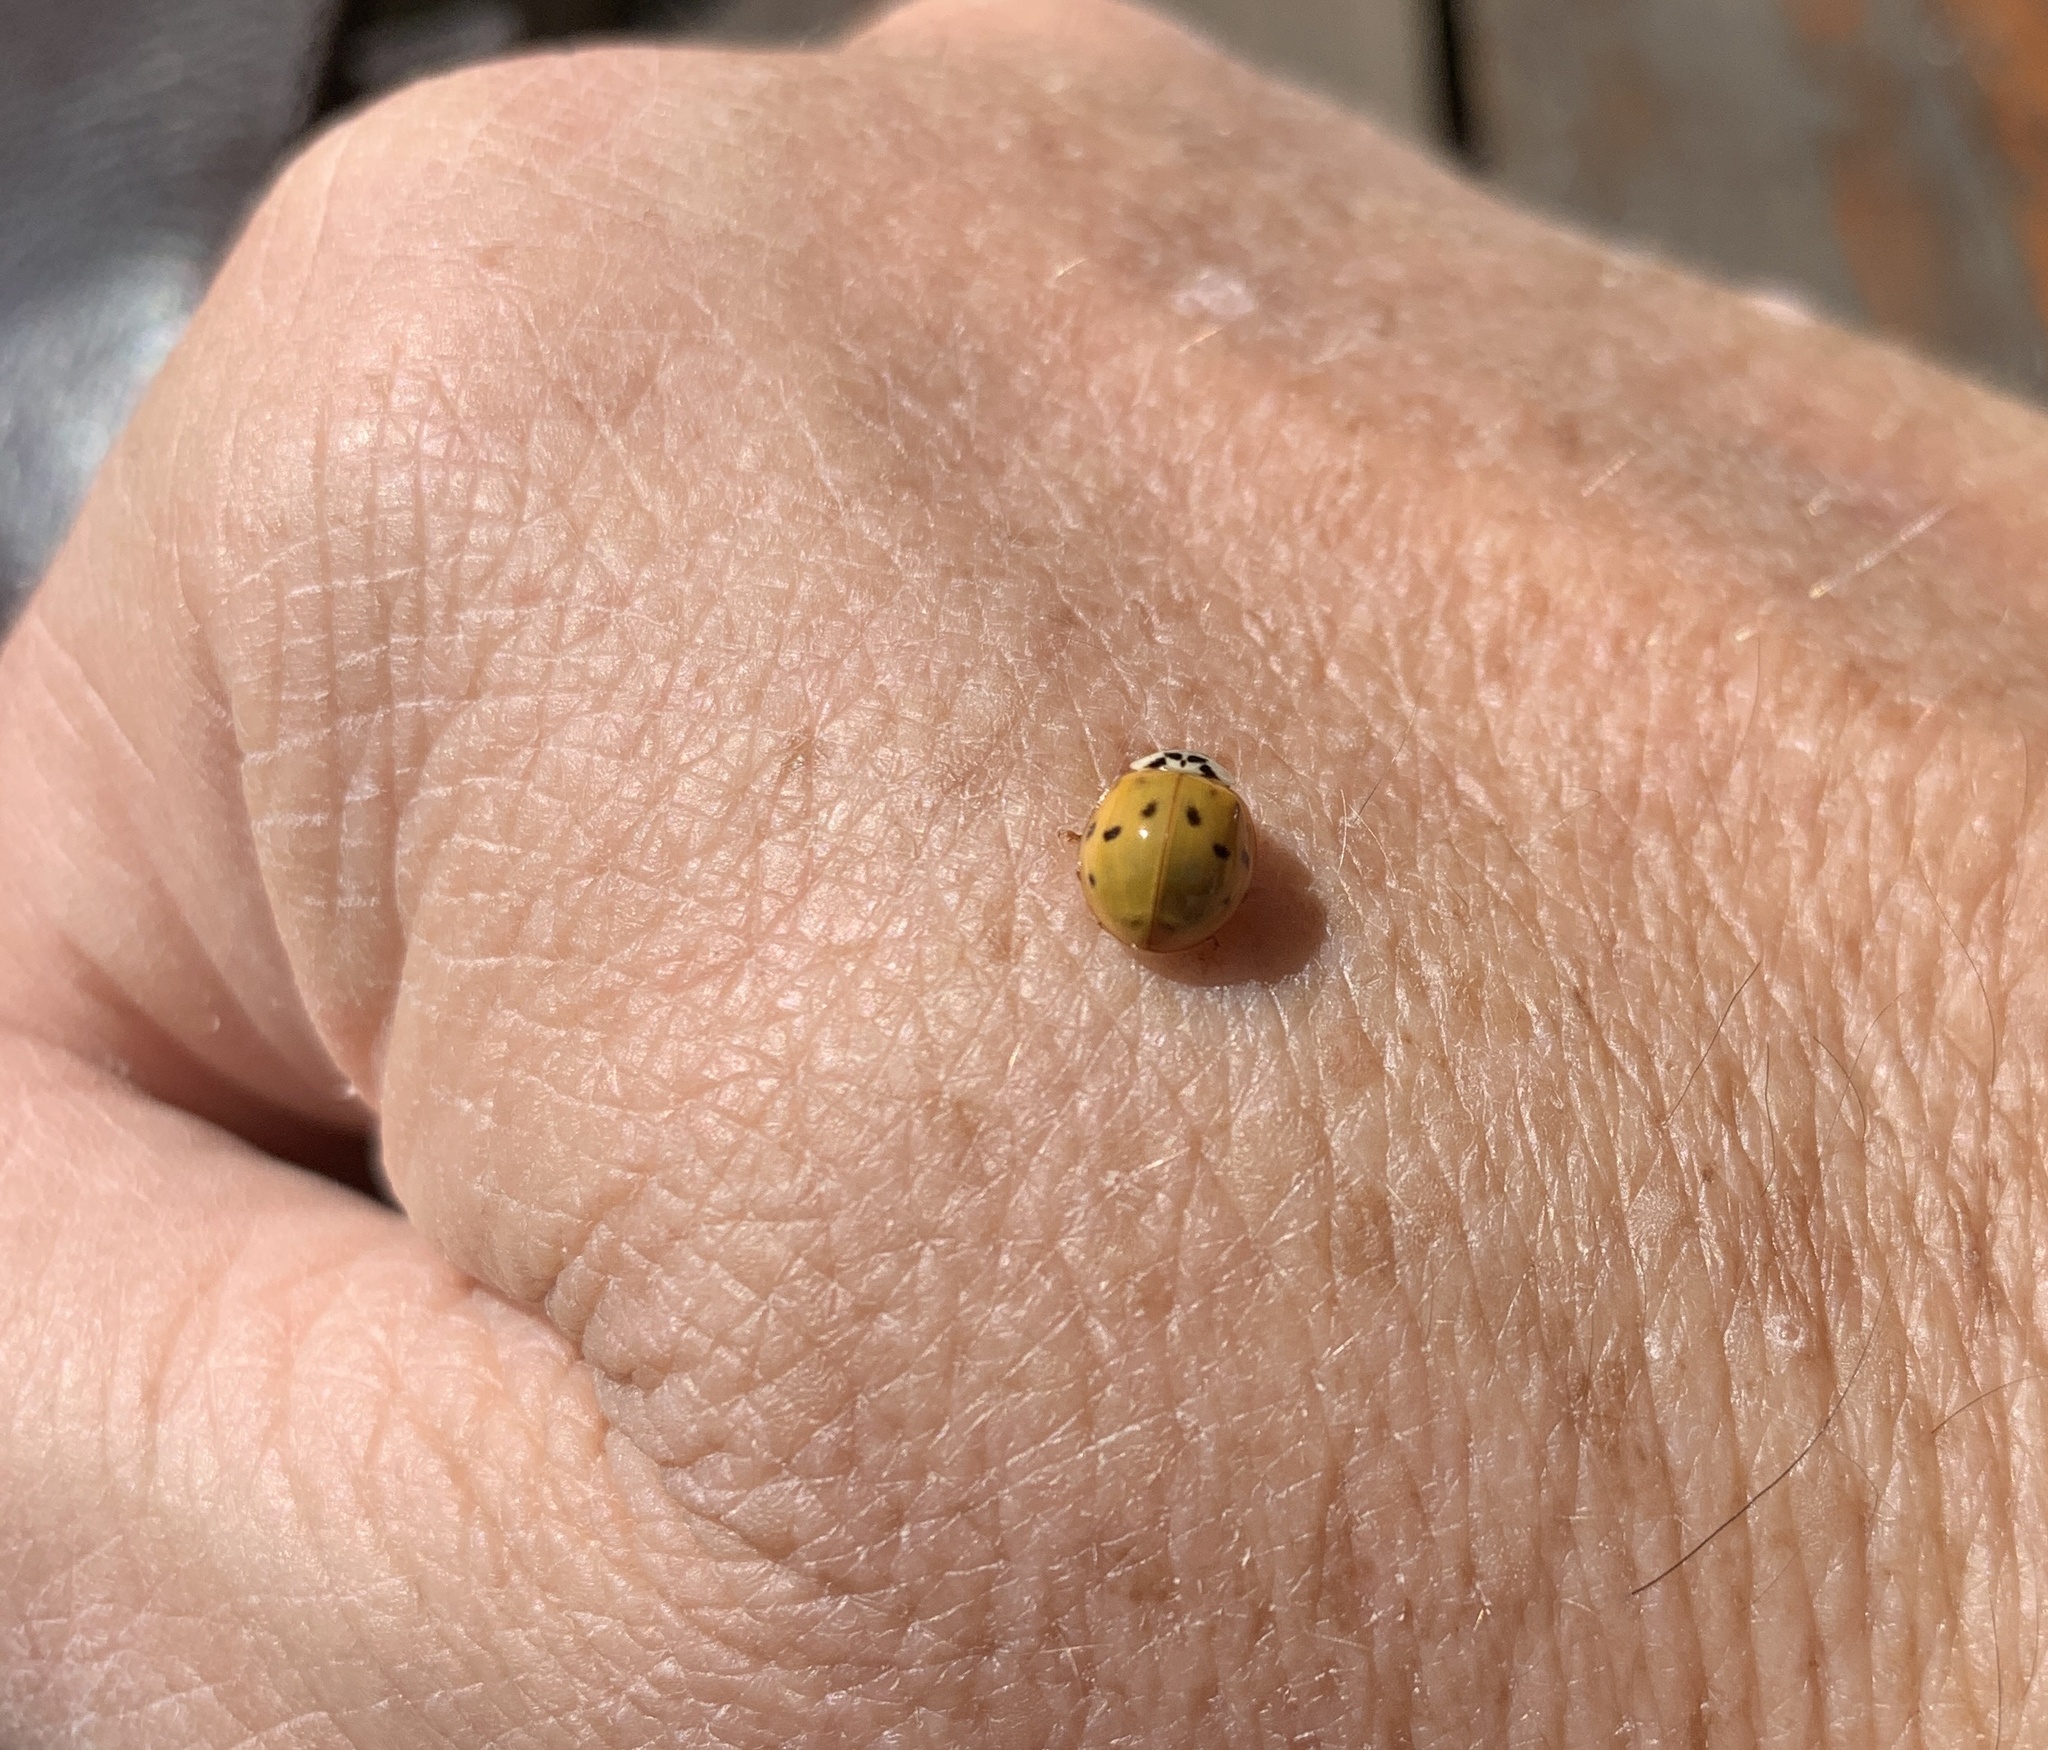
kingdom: Animalia
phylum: Arthropoda
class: Insecta
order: Coleoptera
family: Coccinellidae
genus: Harmonia
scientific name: Harmonia axyridis
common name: Harlequin ladybird
